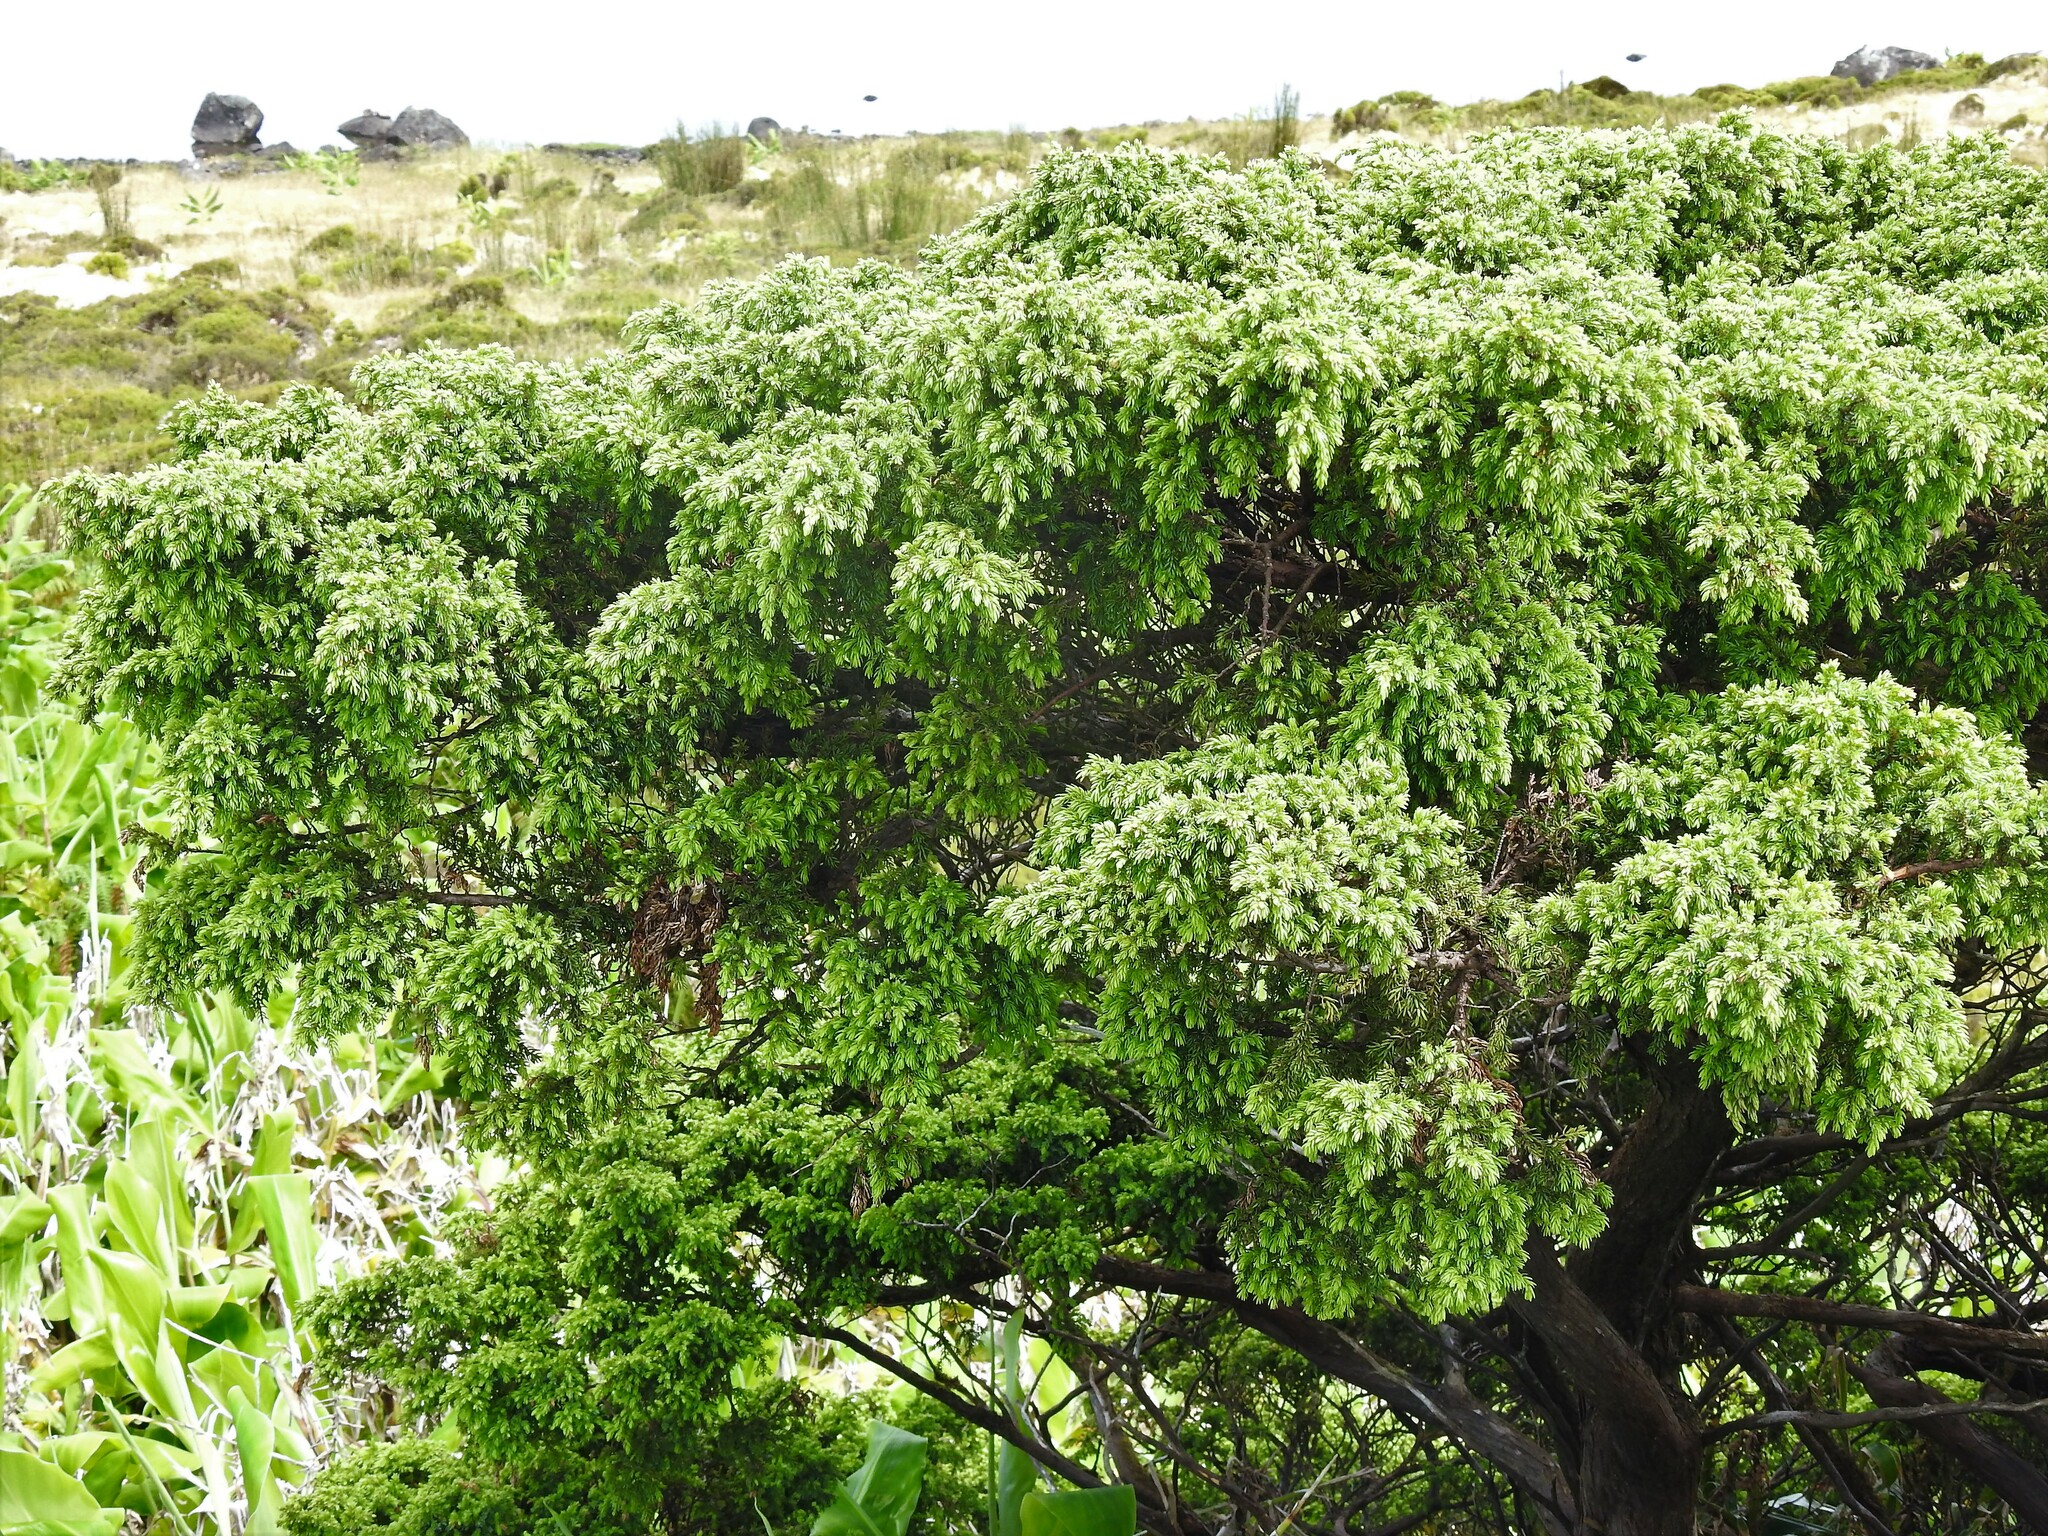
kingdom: Plantae
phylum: Tracheophyta
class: Pinopsida
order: Pinales
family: Cupressaceae
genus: Juniperus
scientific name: Juniperus brevifolia
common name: Azores juniper
